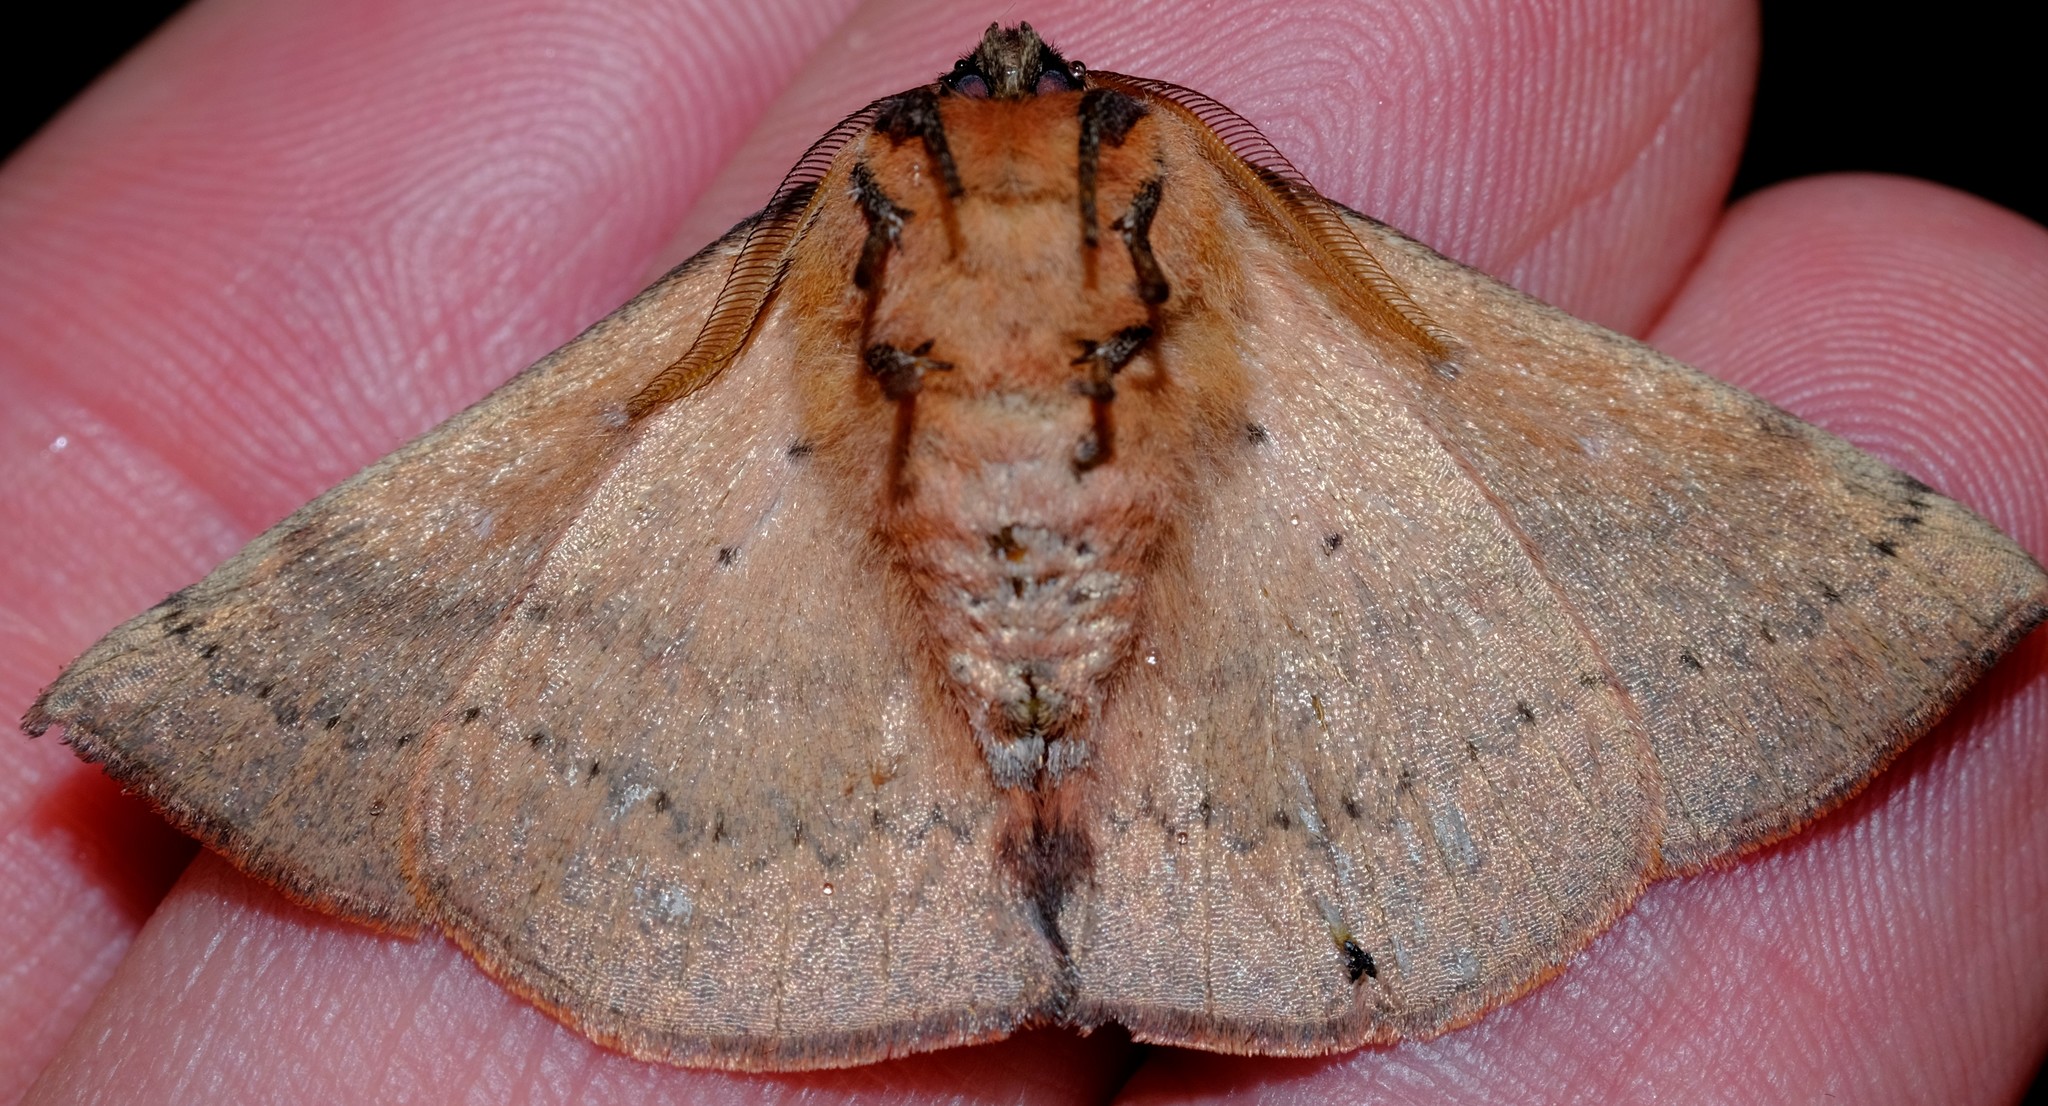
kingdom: Animalia
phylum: Arthropoda
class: Insecta
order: Lepidoptera
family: Anthelidae
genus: Anthela
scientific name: Anthela acuta
